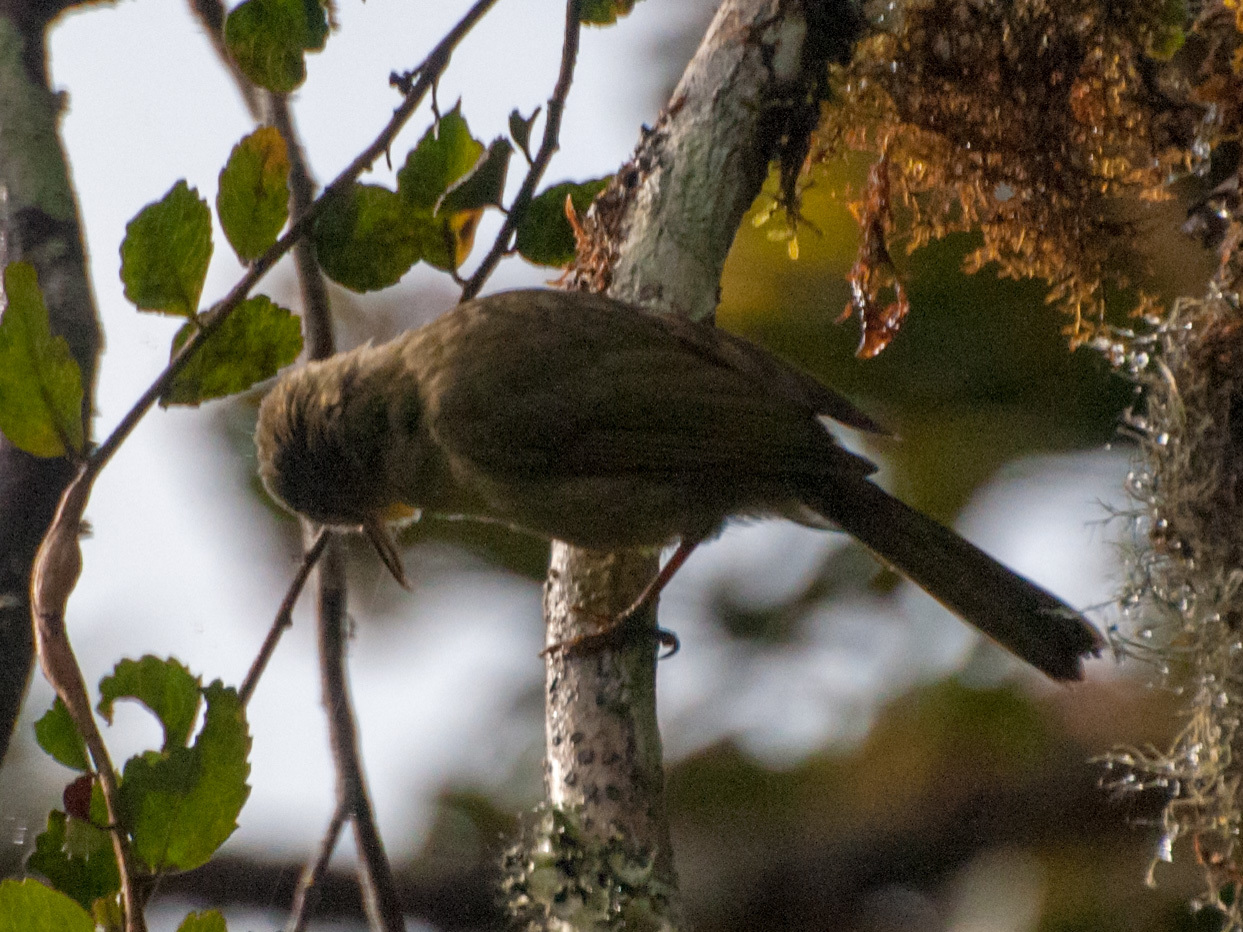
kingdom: Animalia
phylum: Chordata
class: Aves
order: Passeriformes
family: Bernieridae
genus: Bernieria
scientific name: Bernieria madagascariensis
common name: Long-billed bernieria
